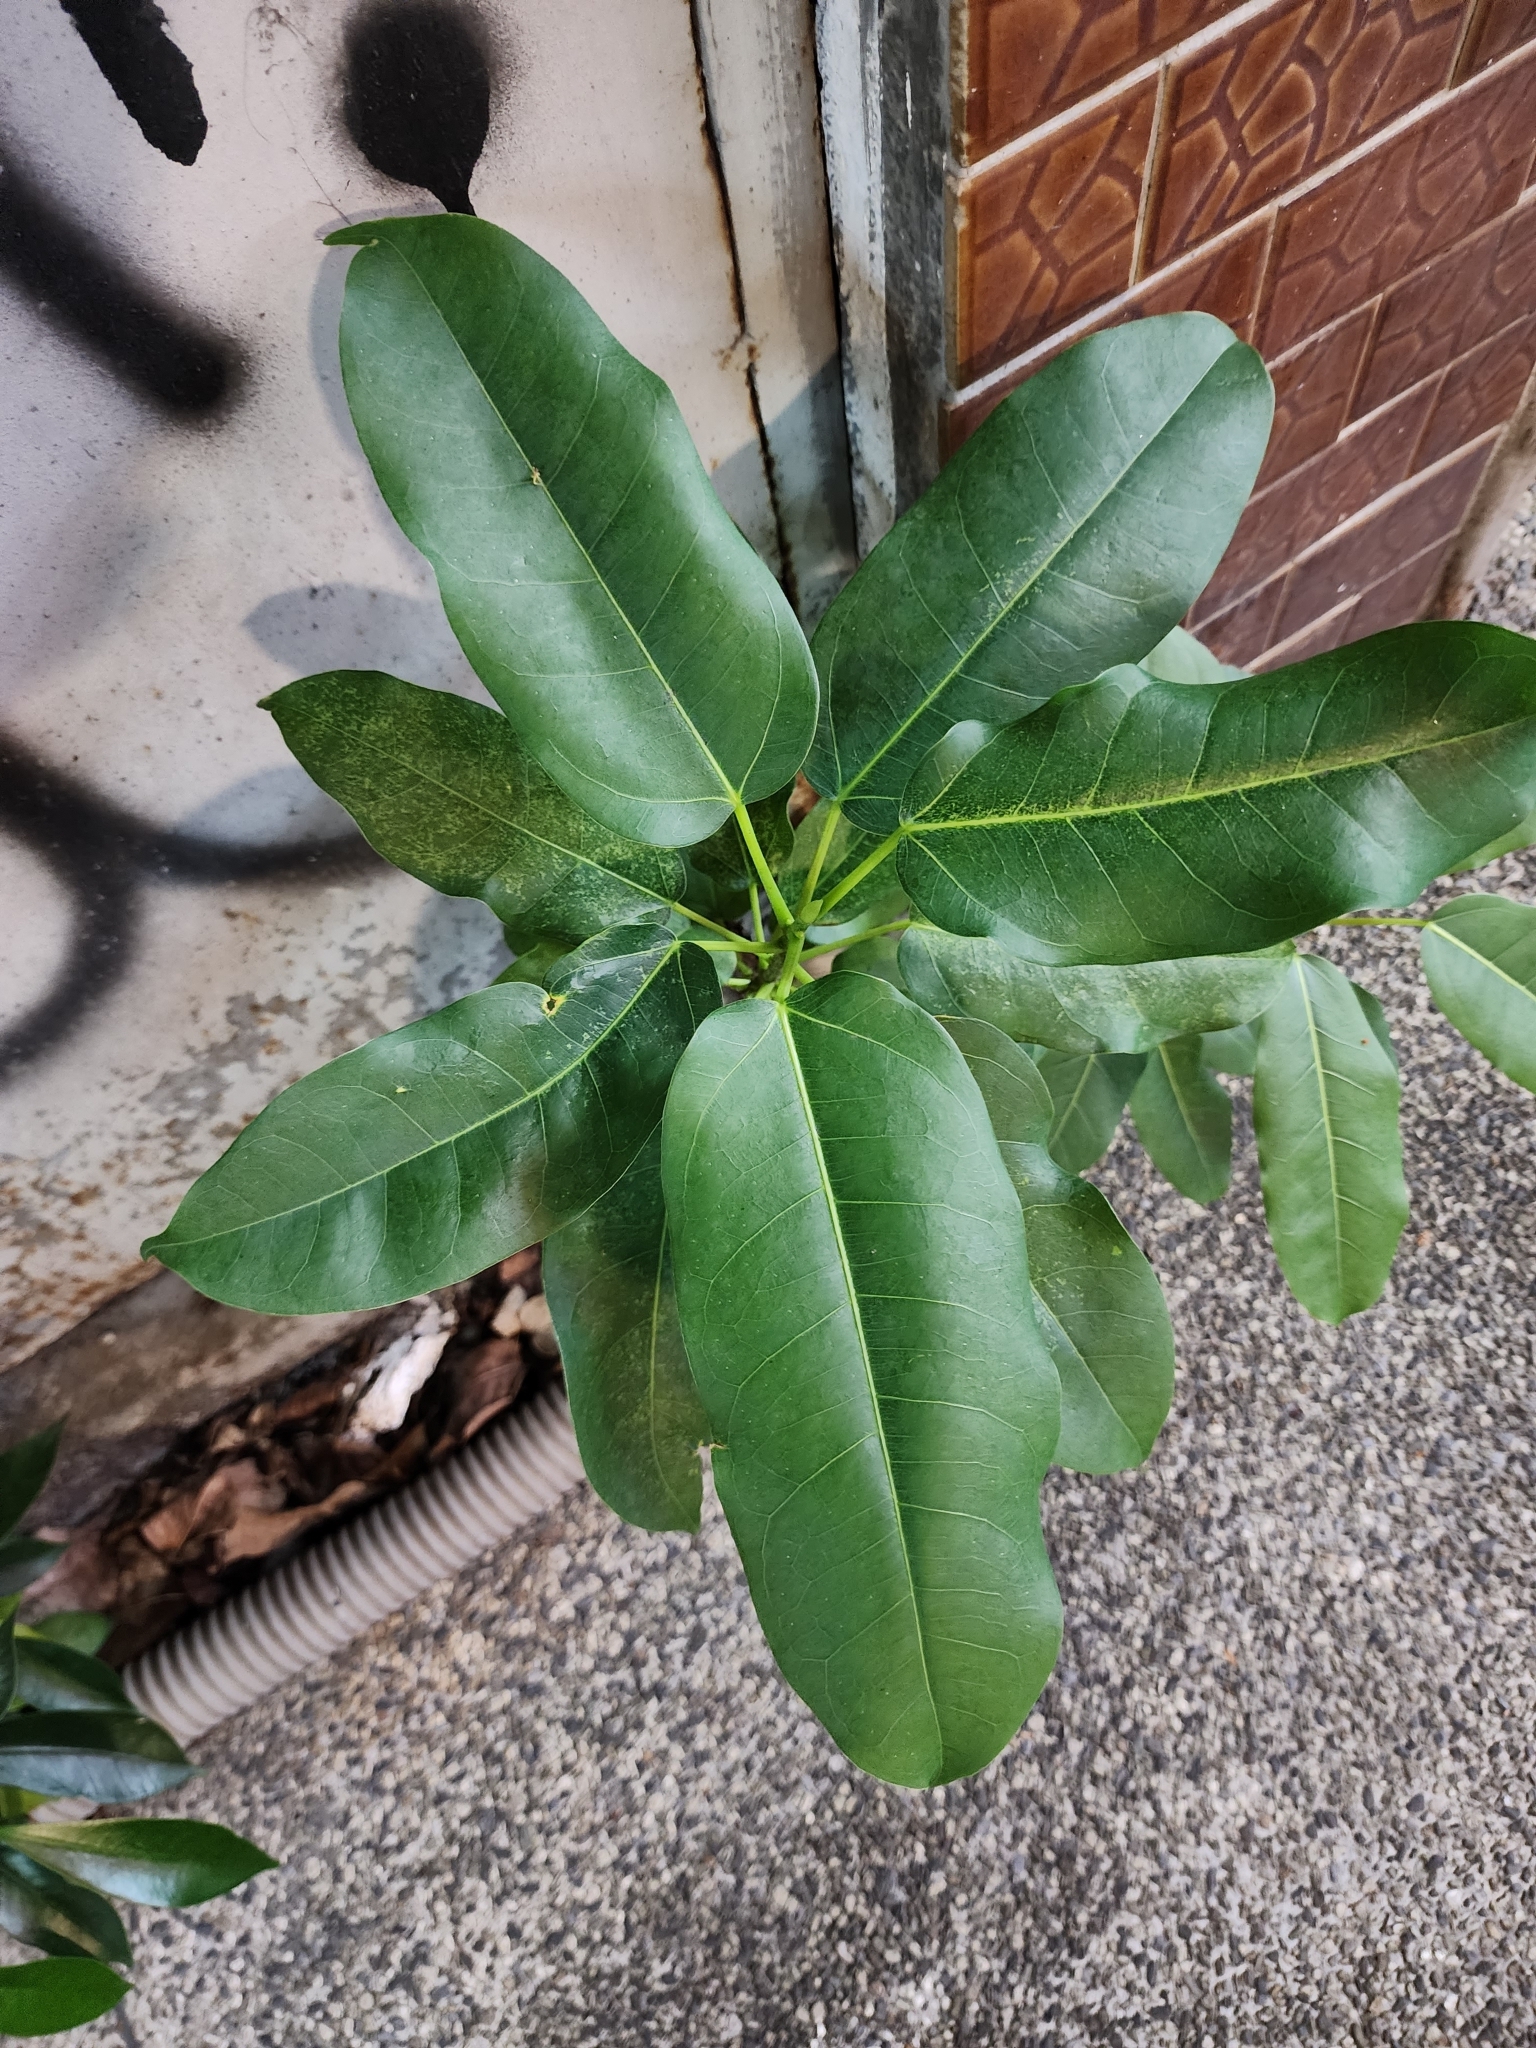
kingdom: Plantae
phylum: Tracheophyta
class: Magnoliopsida
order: Rosales
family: Moraceae
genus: Ficus
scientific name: Ficus subpisocarpa
